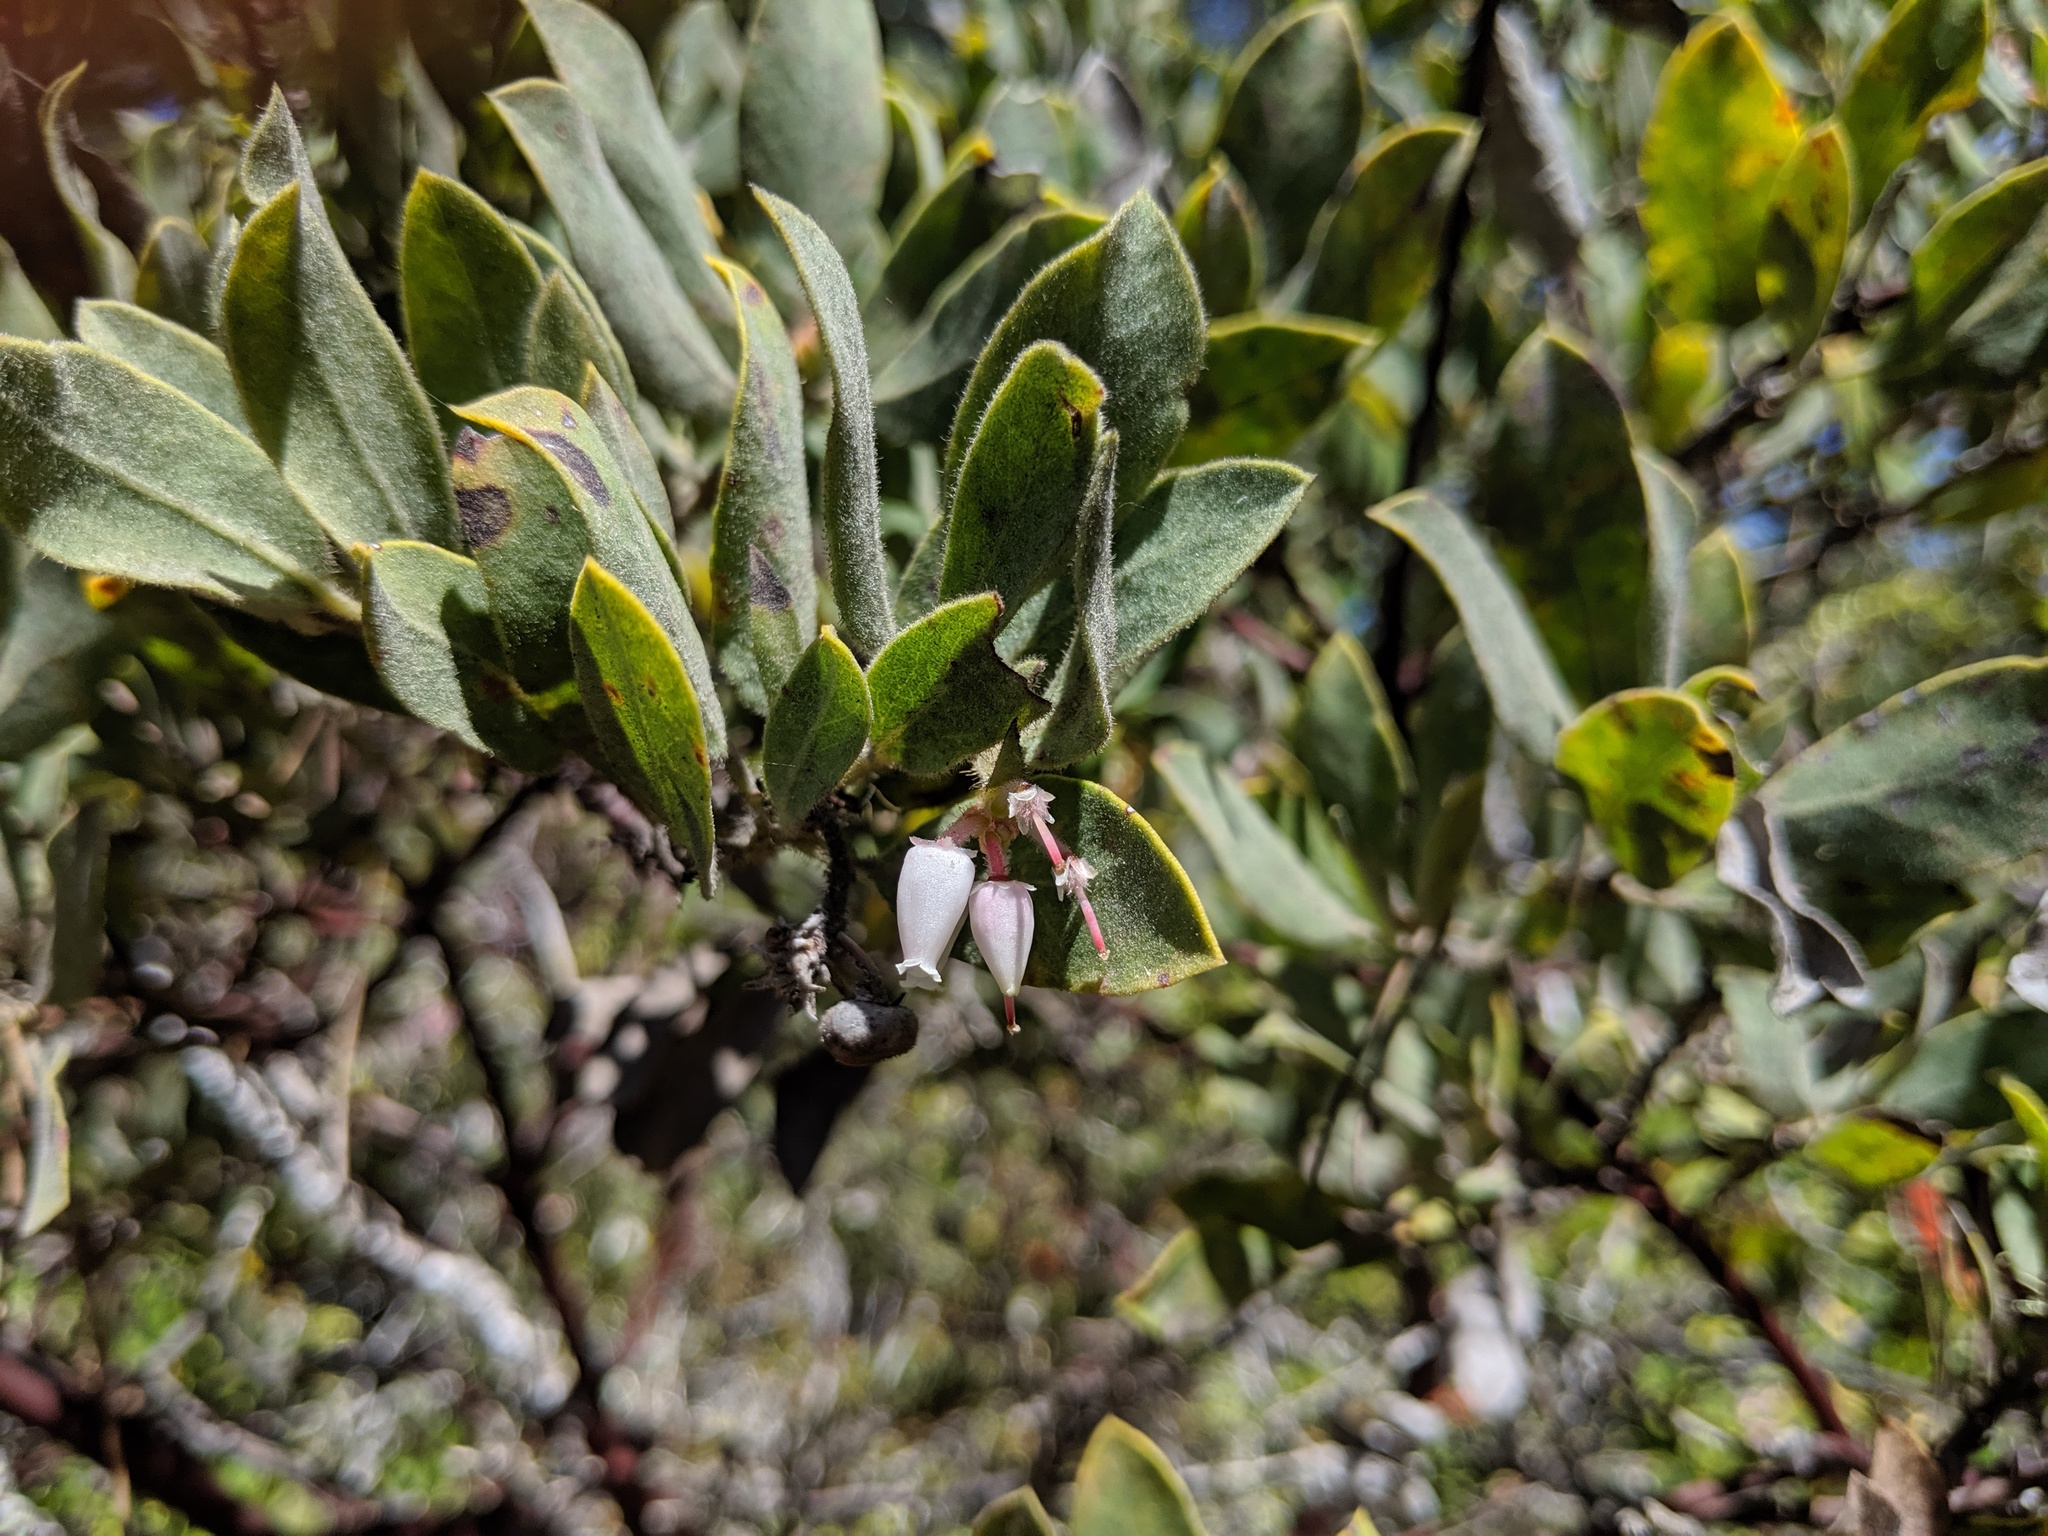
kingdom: Plantae
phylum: Tracheophyta
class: Magnoliopsida
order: Ericales
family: Ericaceae
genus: Arctostaphylos
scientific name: Arctostaphylos glandulosa
